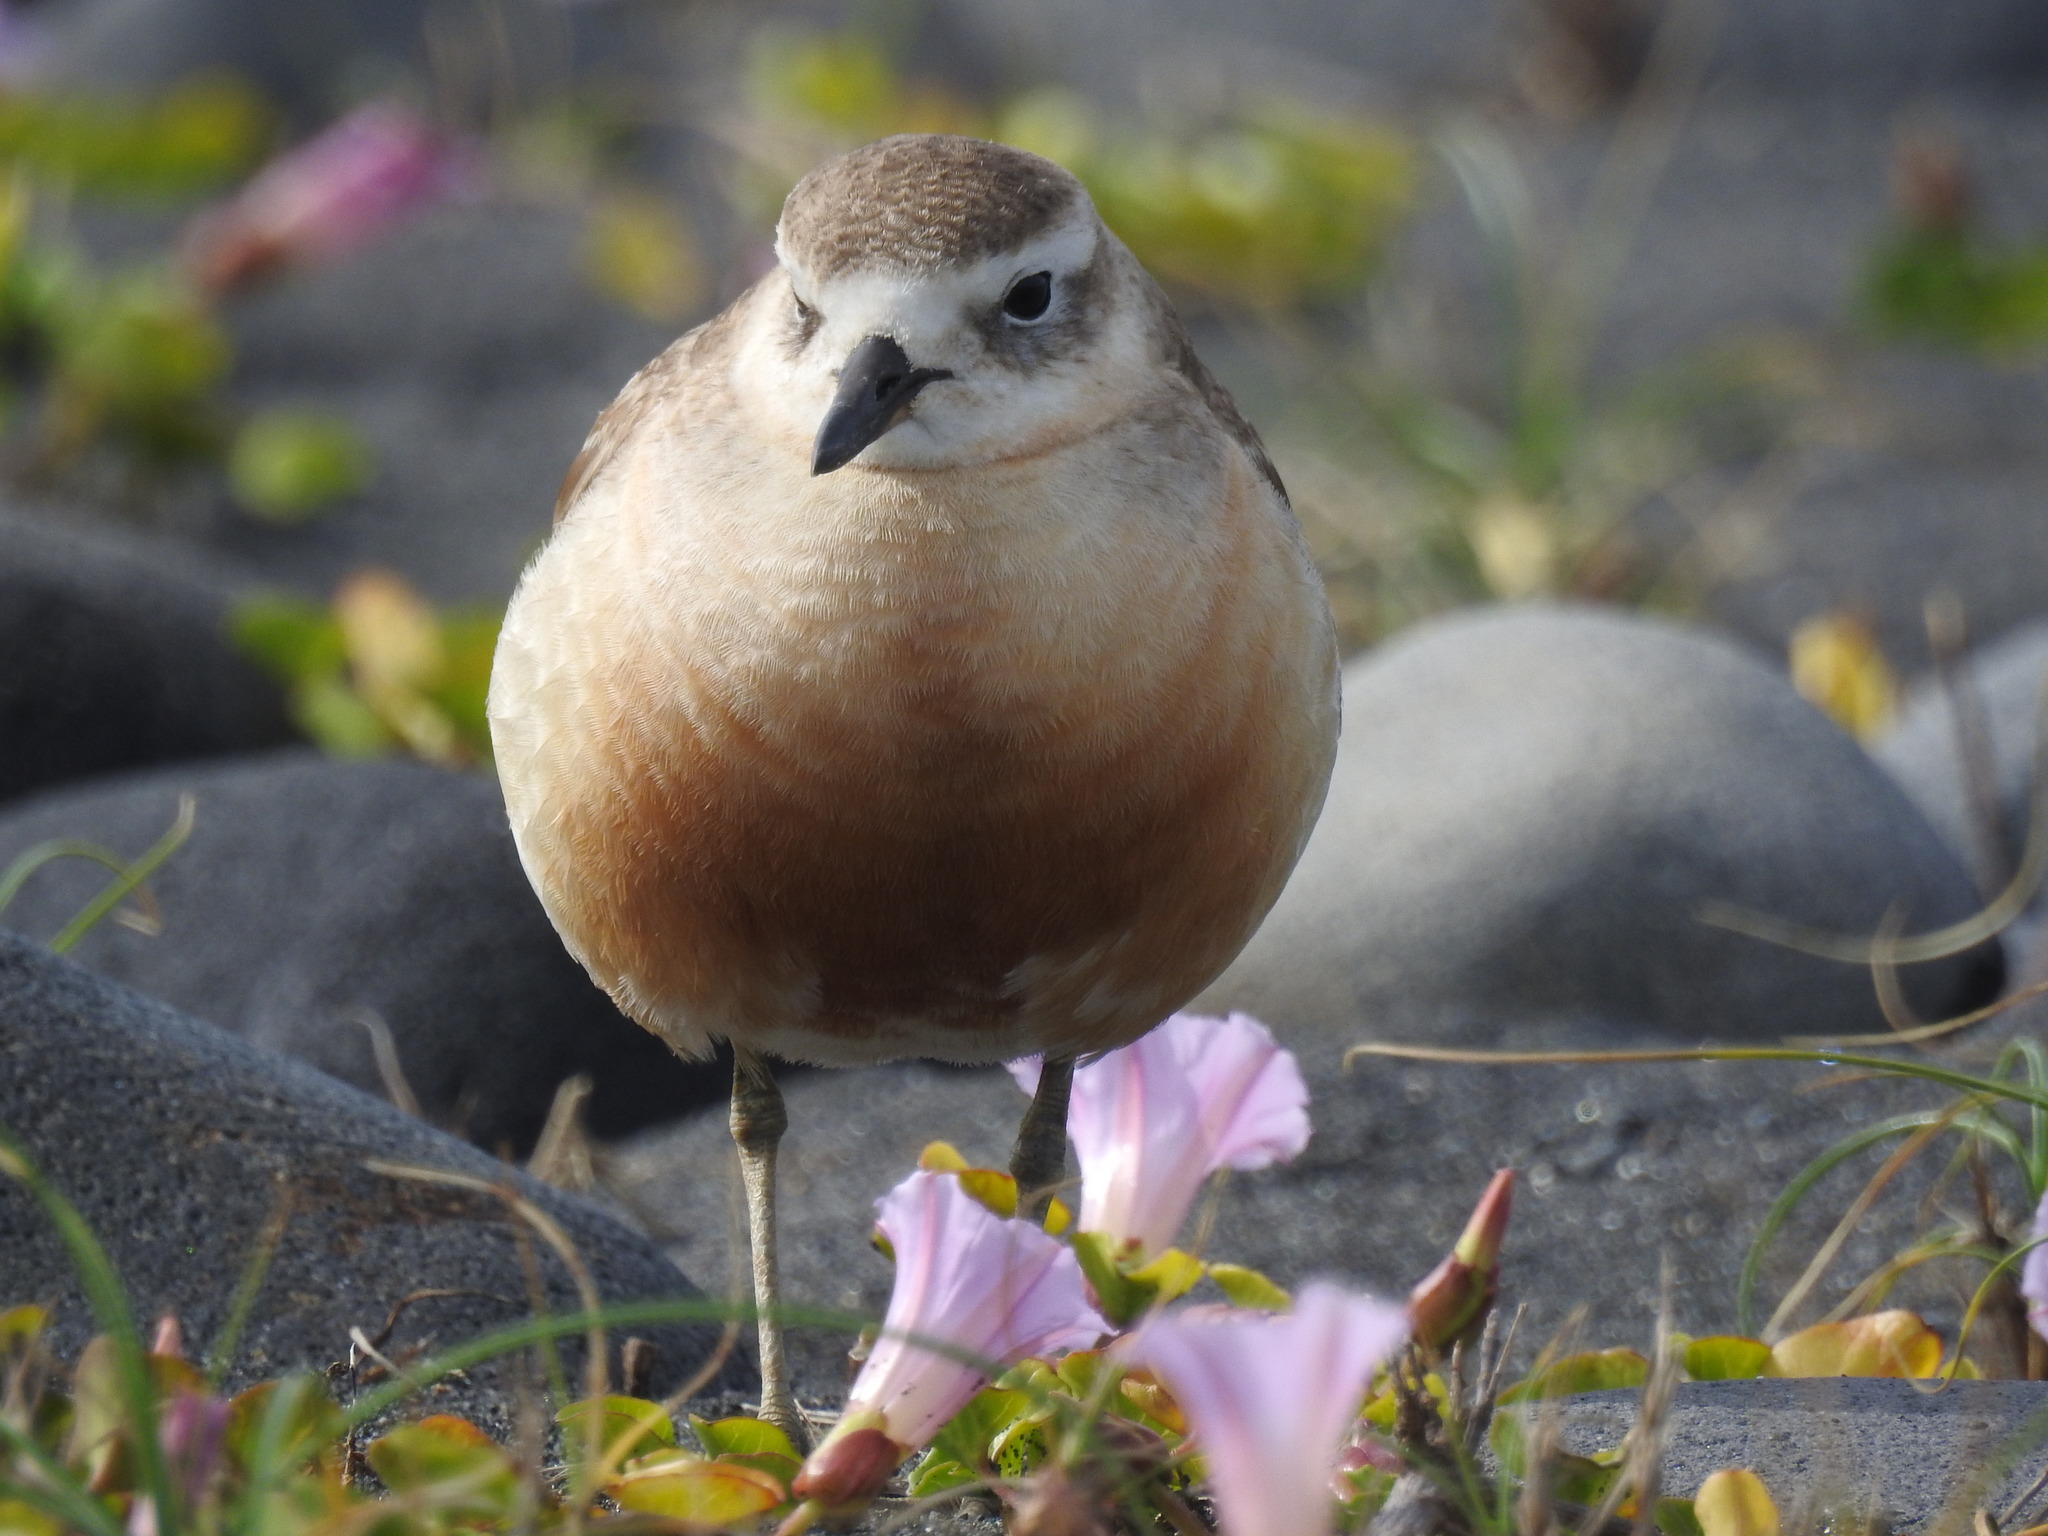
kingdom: Animalia
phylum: Chordata
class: Aves
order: Charadriiformes
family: Charadriidae
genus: Anarhynchus
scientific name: Anarhynchus
